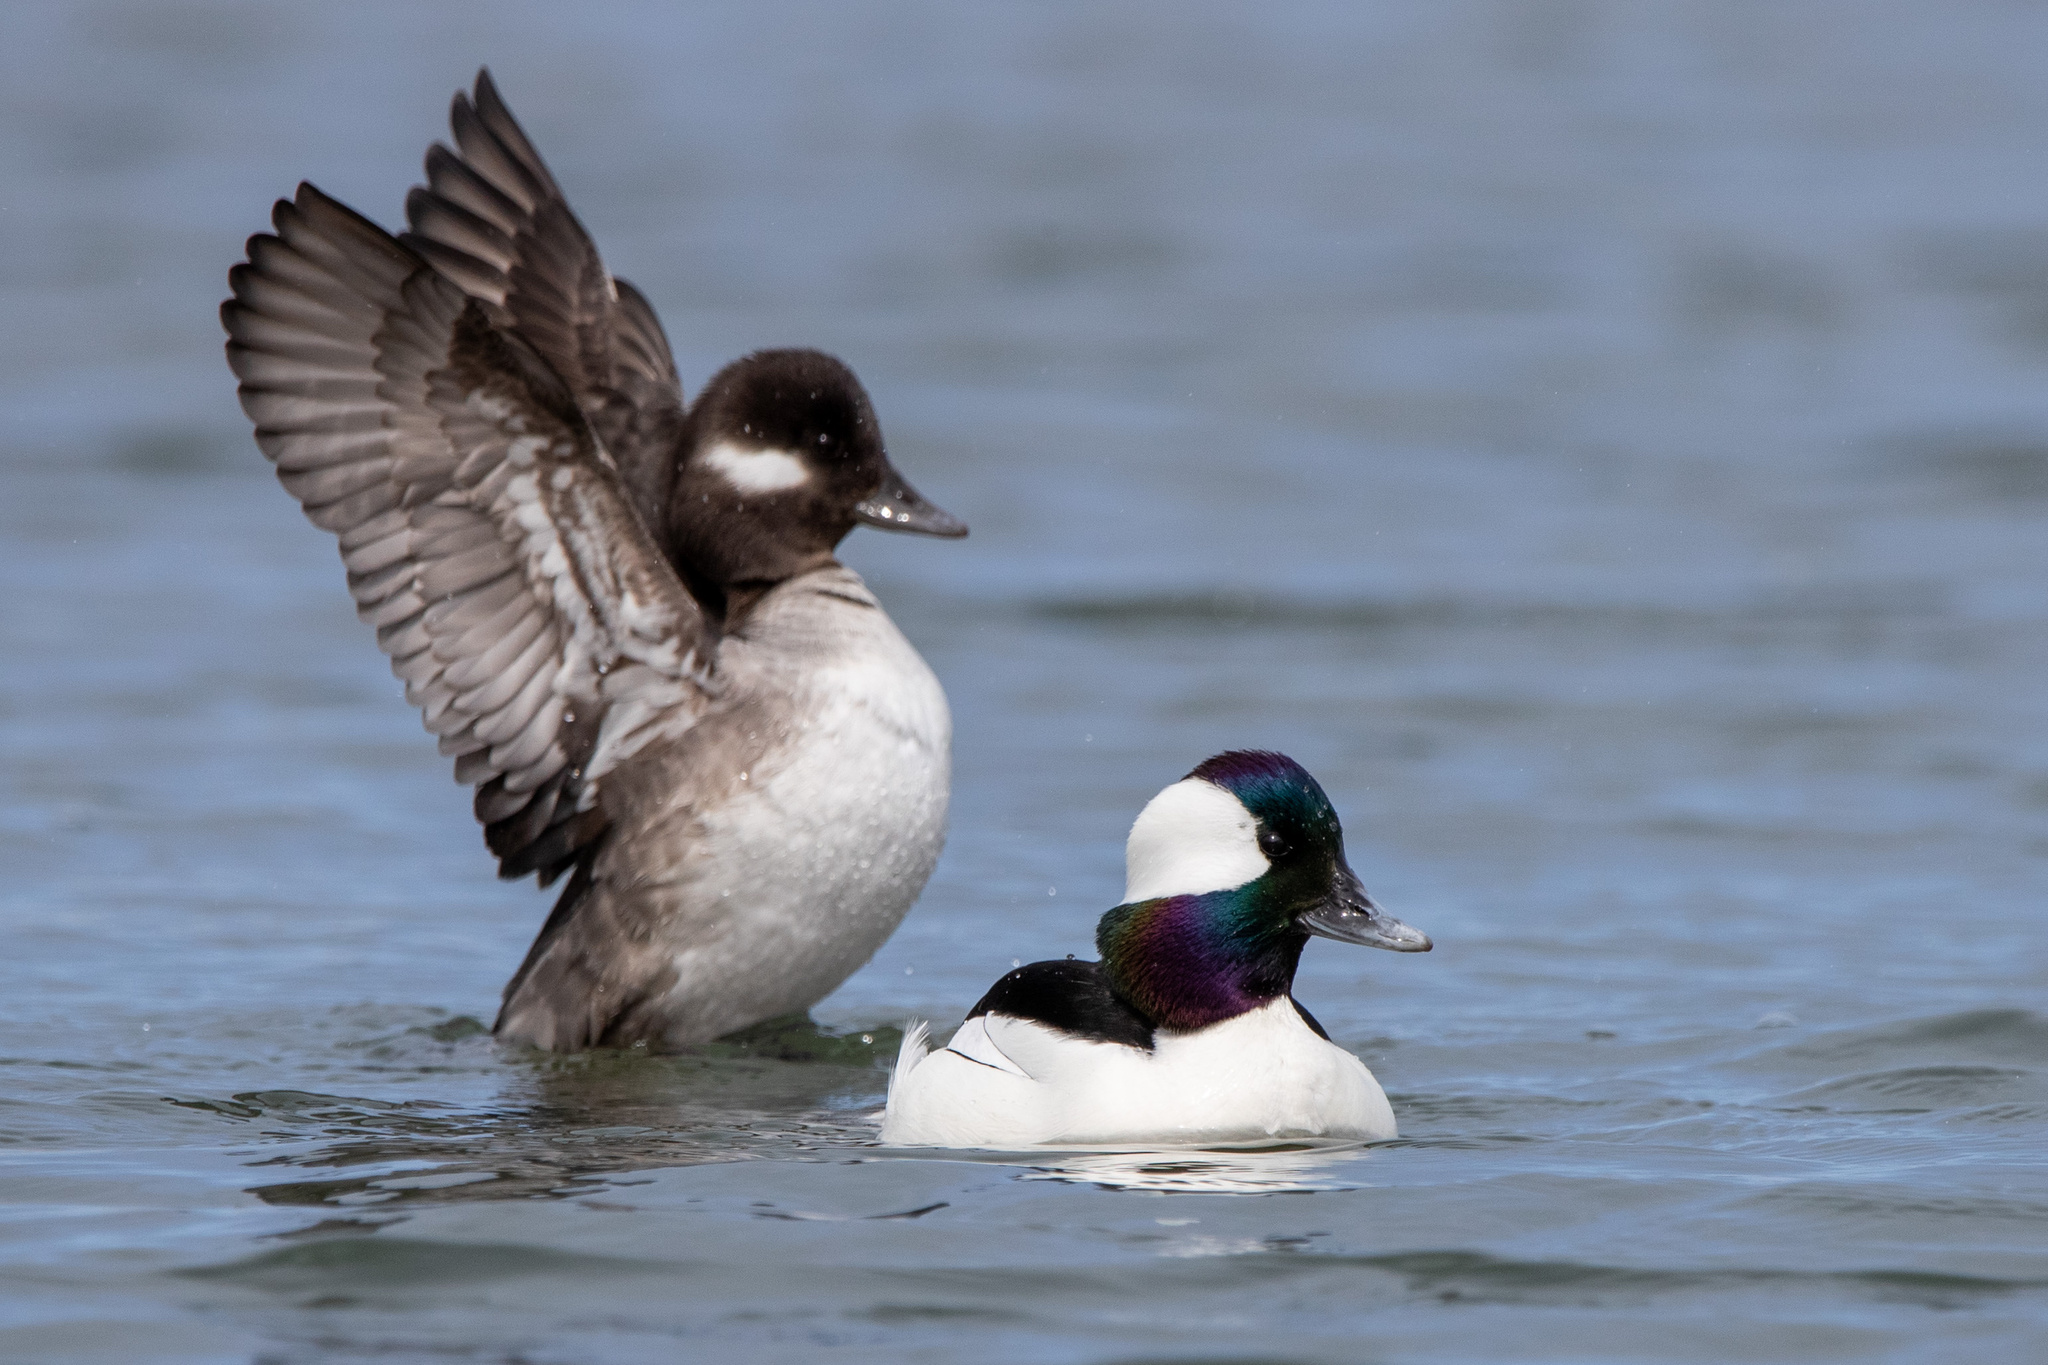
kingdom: Animalia
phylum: Chordata
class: Aves
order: Anseriformes
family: Anatidae
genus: Bucephala
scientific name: Bucephala albeola
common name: Bufflehead
